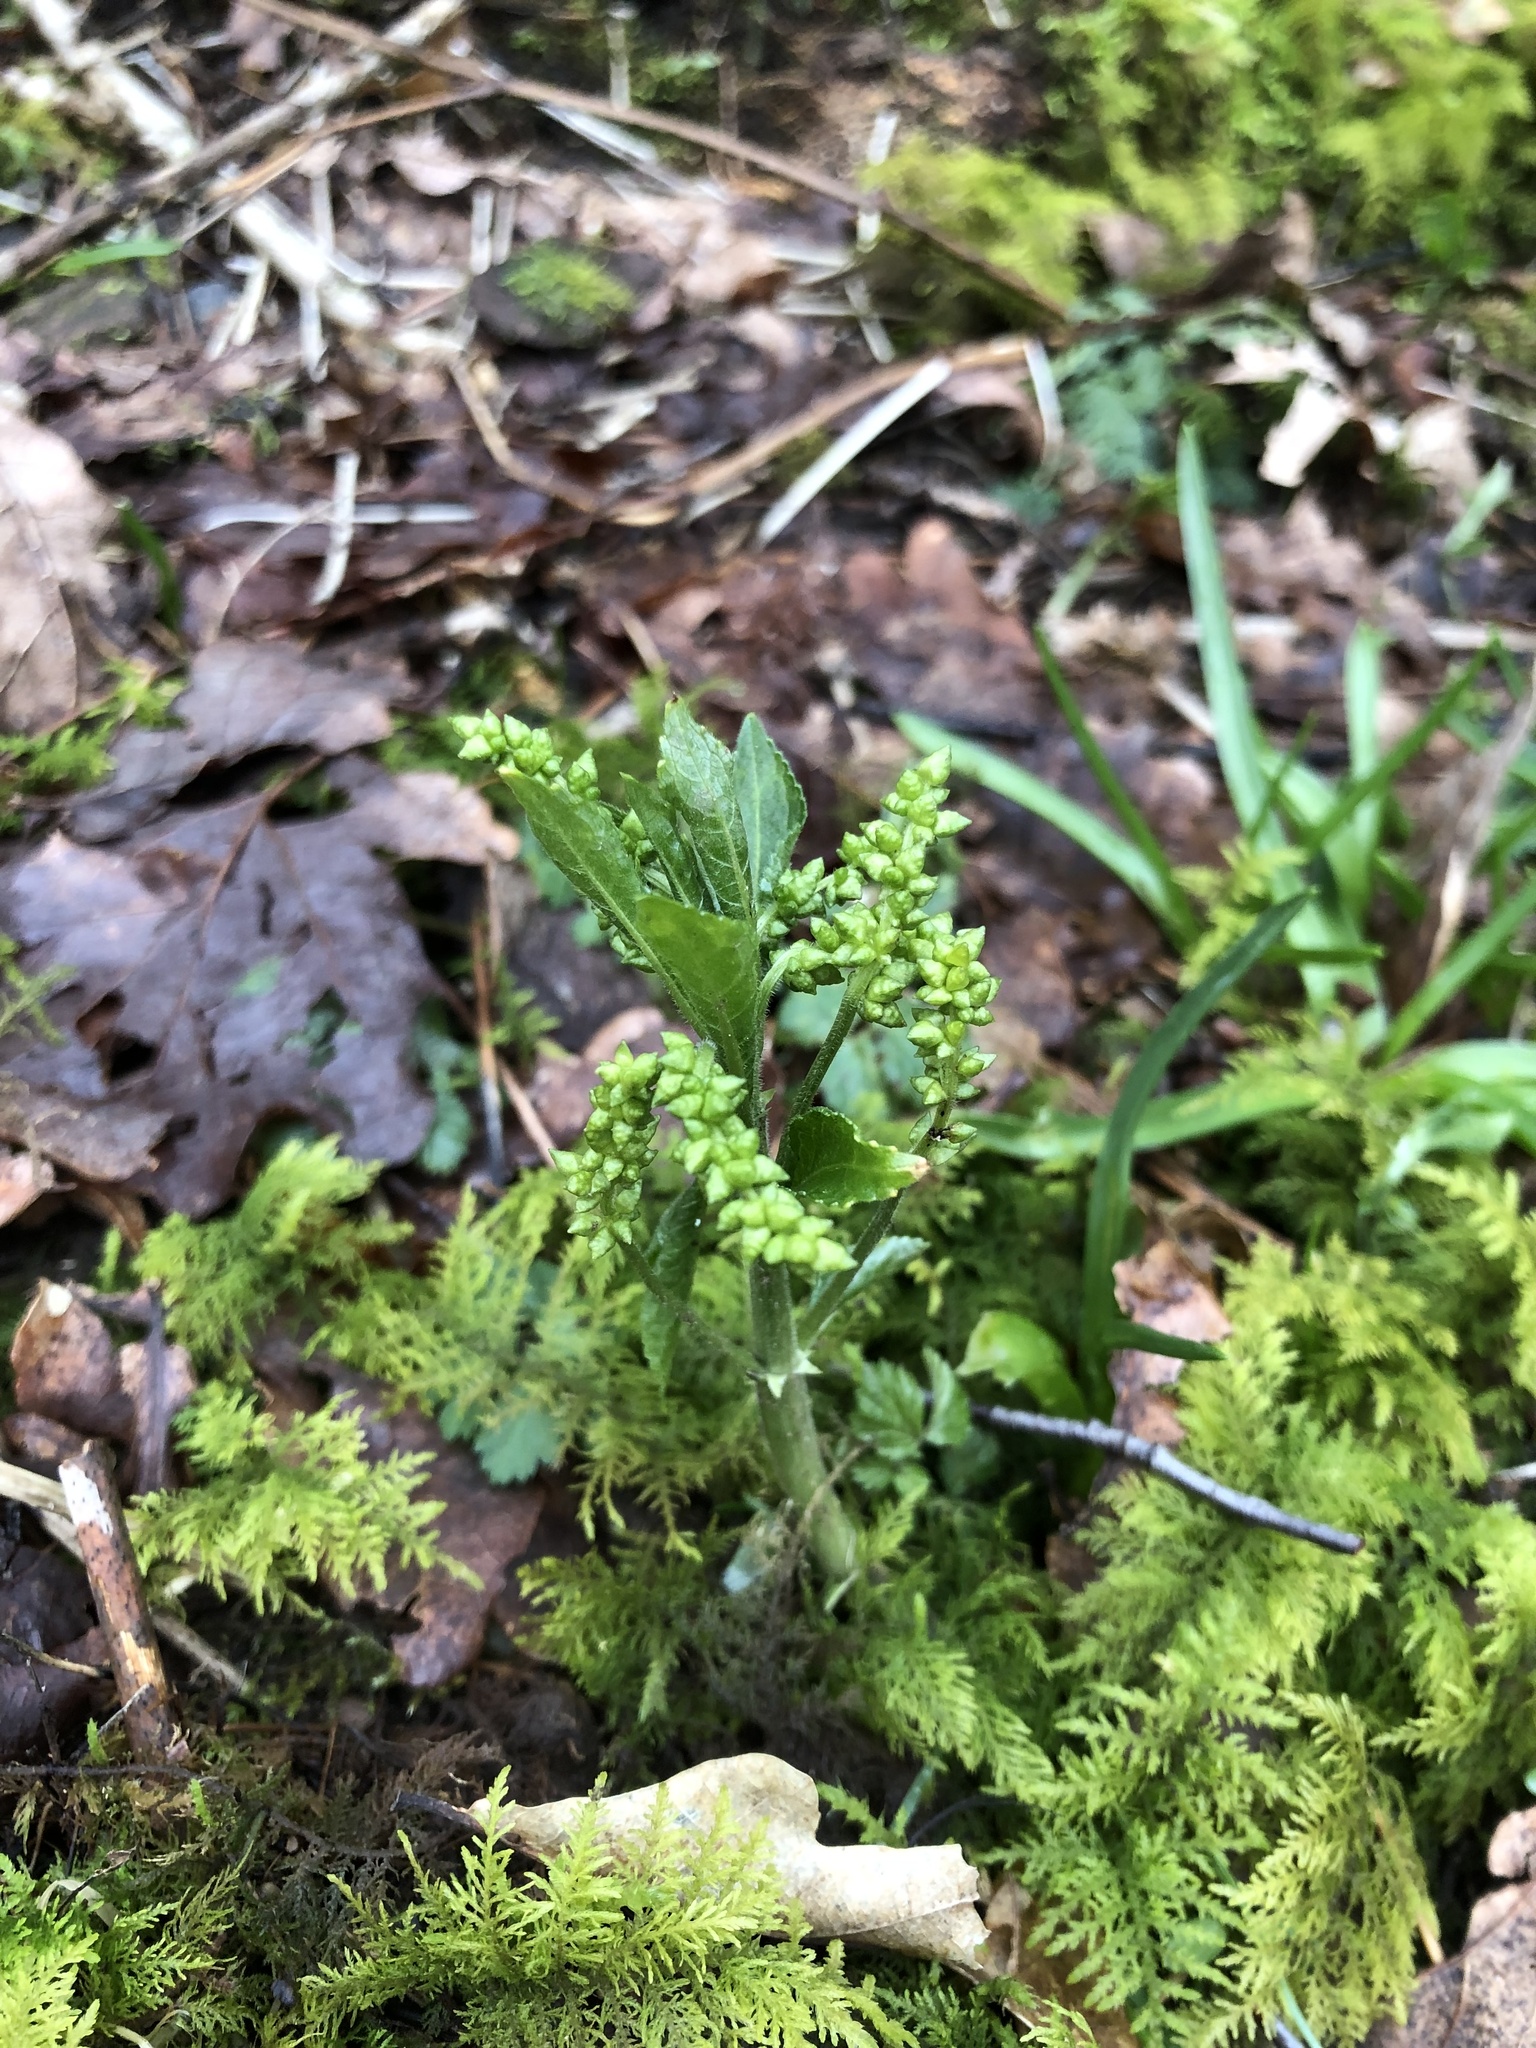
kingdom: Plantae
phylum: Tracheophyta
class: Magnoliopsida
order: Malpighiales
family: Euphorbiaceae
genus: Mercurialis
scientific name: Mercurialis perennis
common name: Dog mercury
